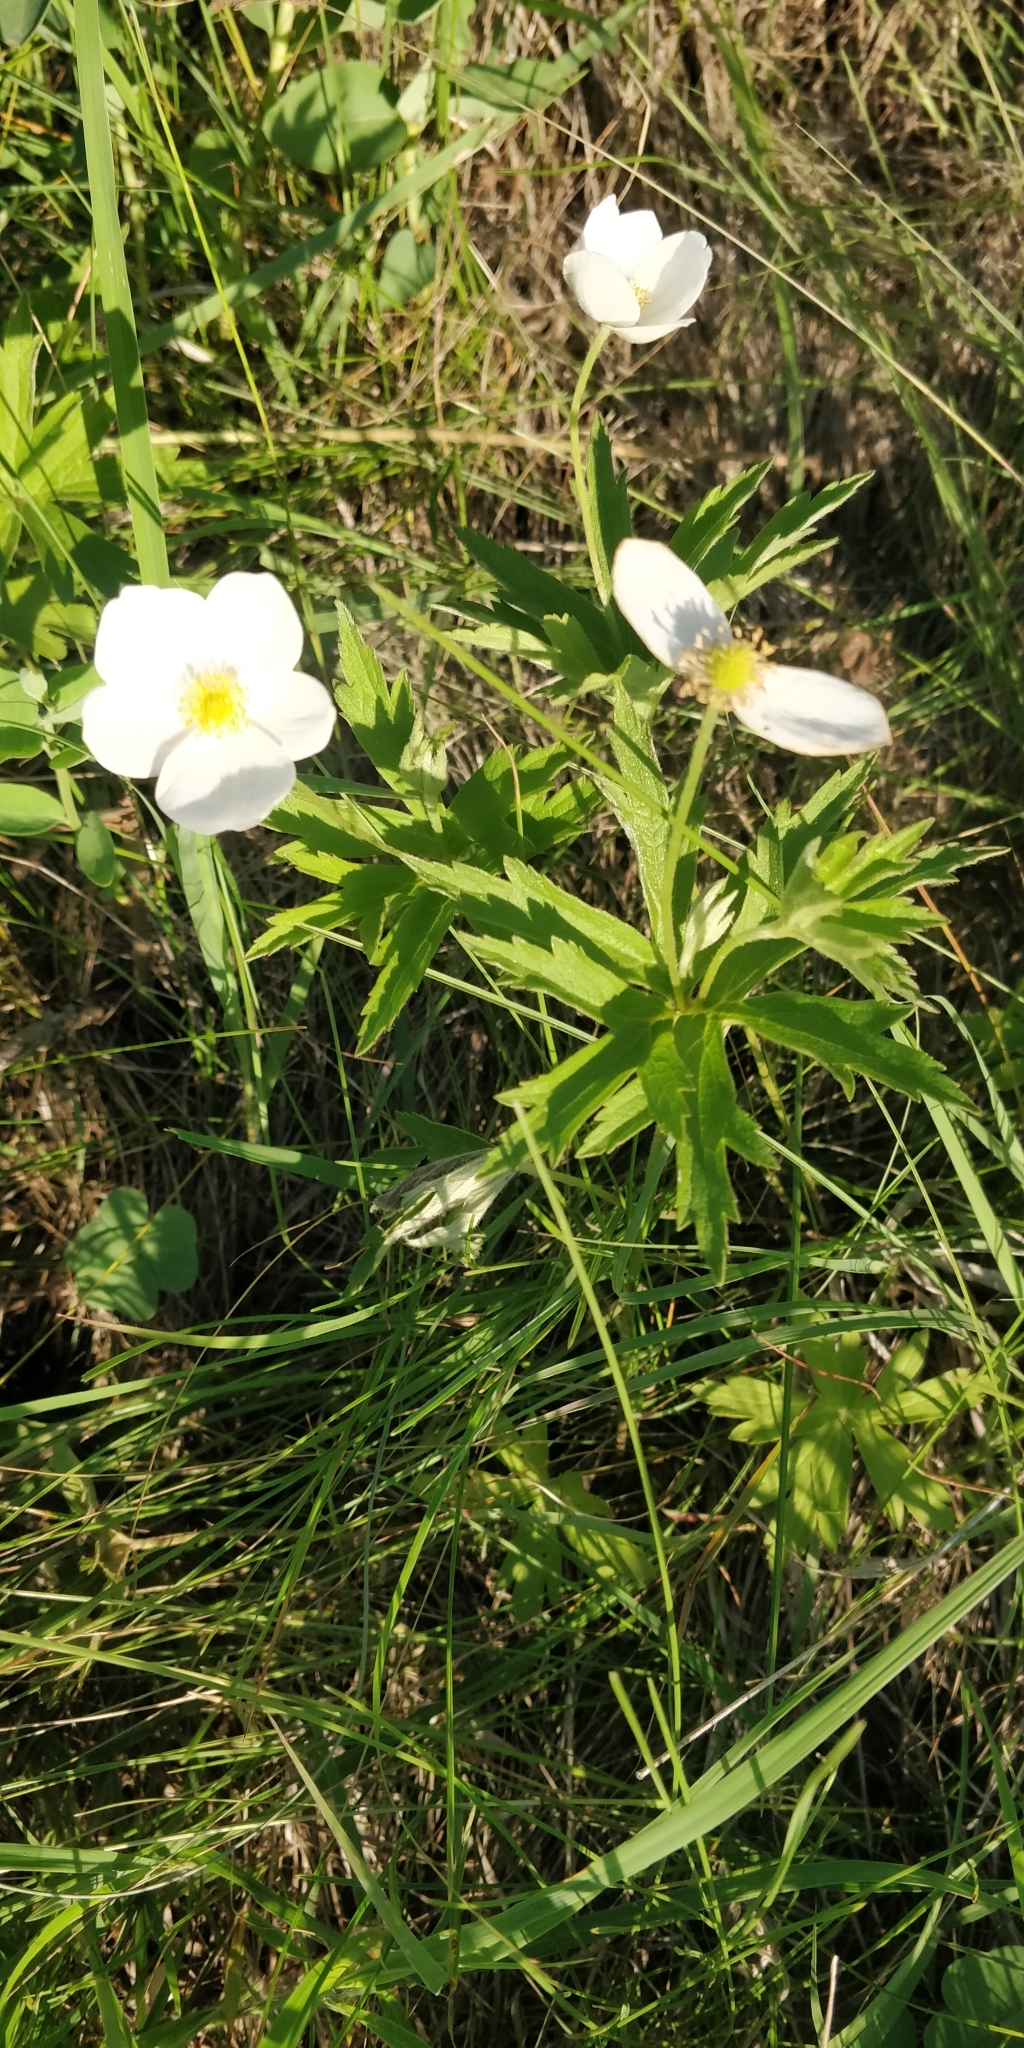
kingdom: Plantae
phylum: Tracheophyta
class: Magnoliopsida
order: Ranunculales
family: Ranunculaceae
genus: Anemonastrum
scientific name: Anemonastrum canadense
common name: Canada anemone
